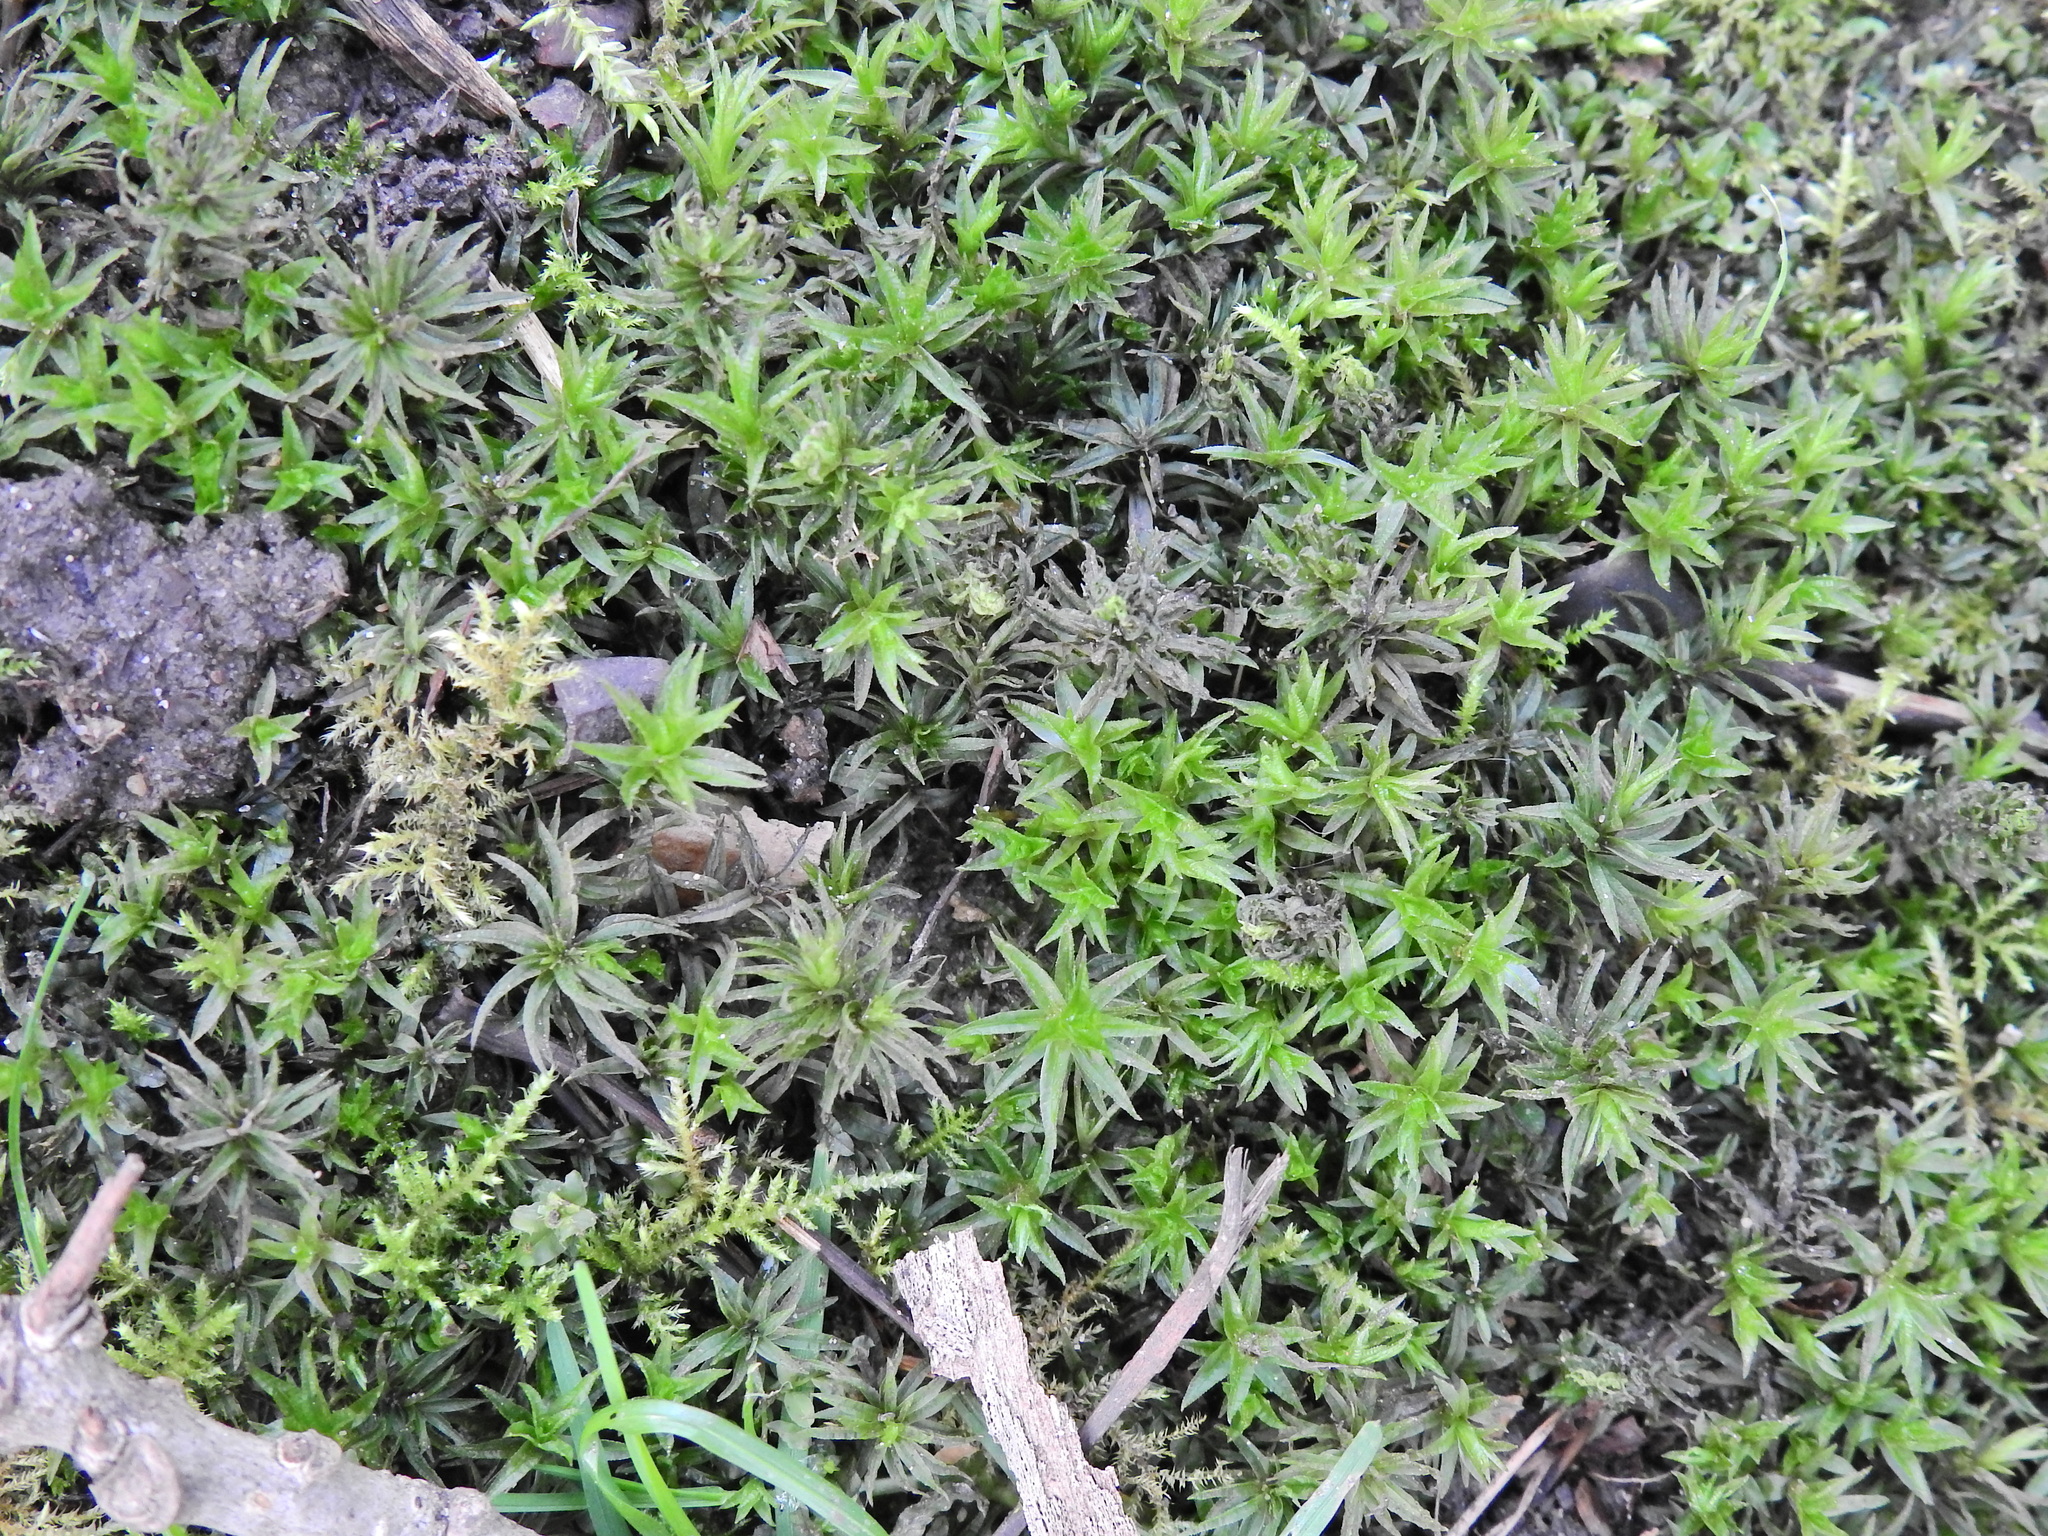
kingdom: Plantae
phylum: Bryophyta
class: Polytrichopsida
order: Polytrichales
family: Polytrichaceae
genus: Atrichum
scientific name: Atrichum undulatum
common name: Common smoothcap
